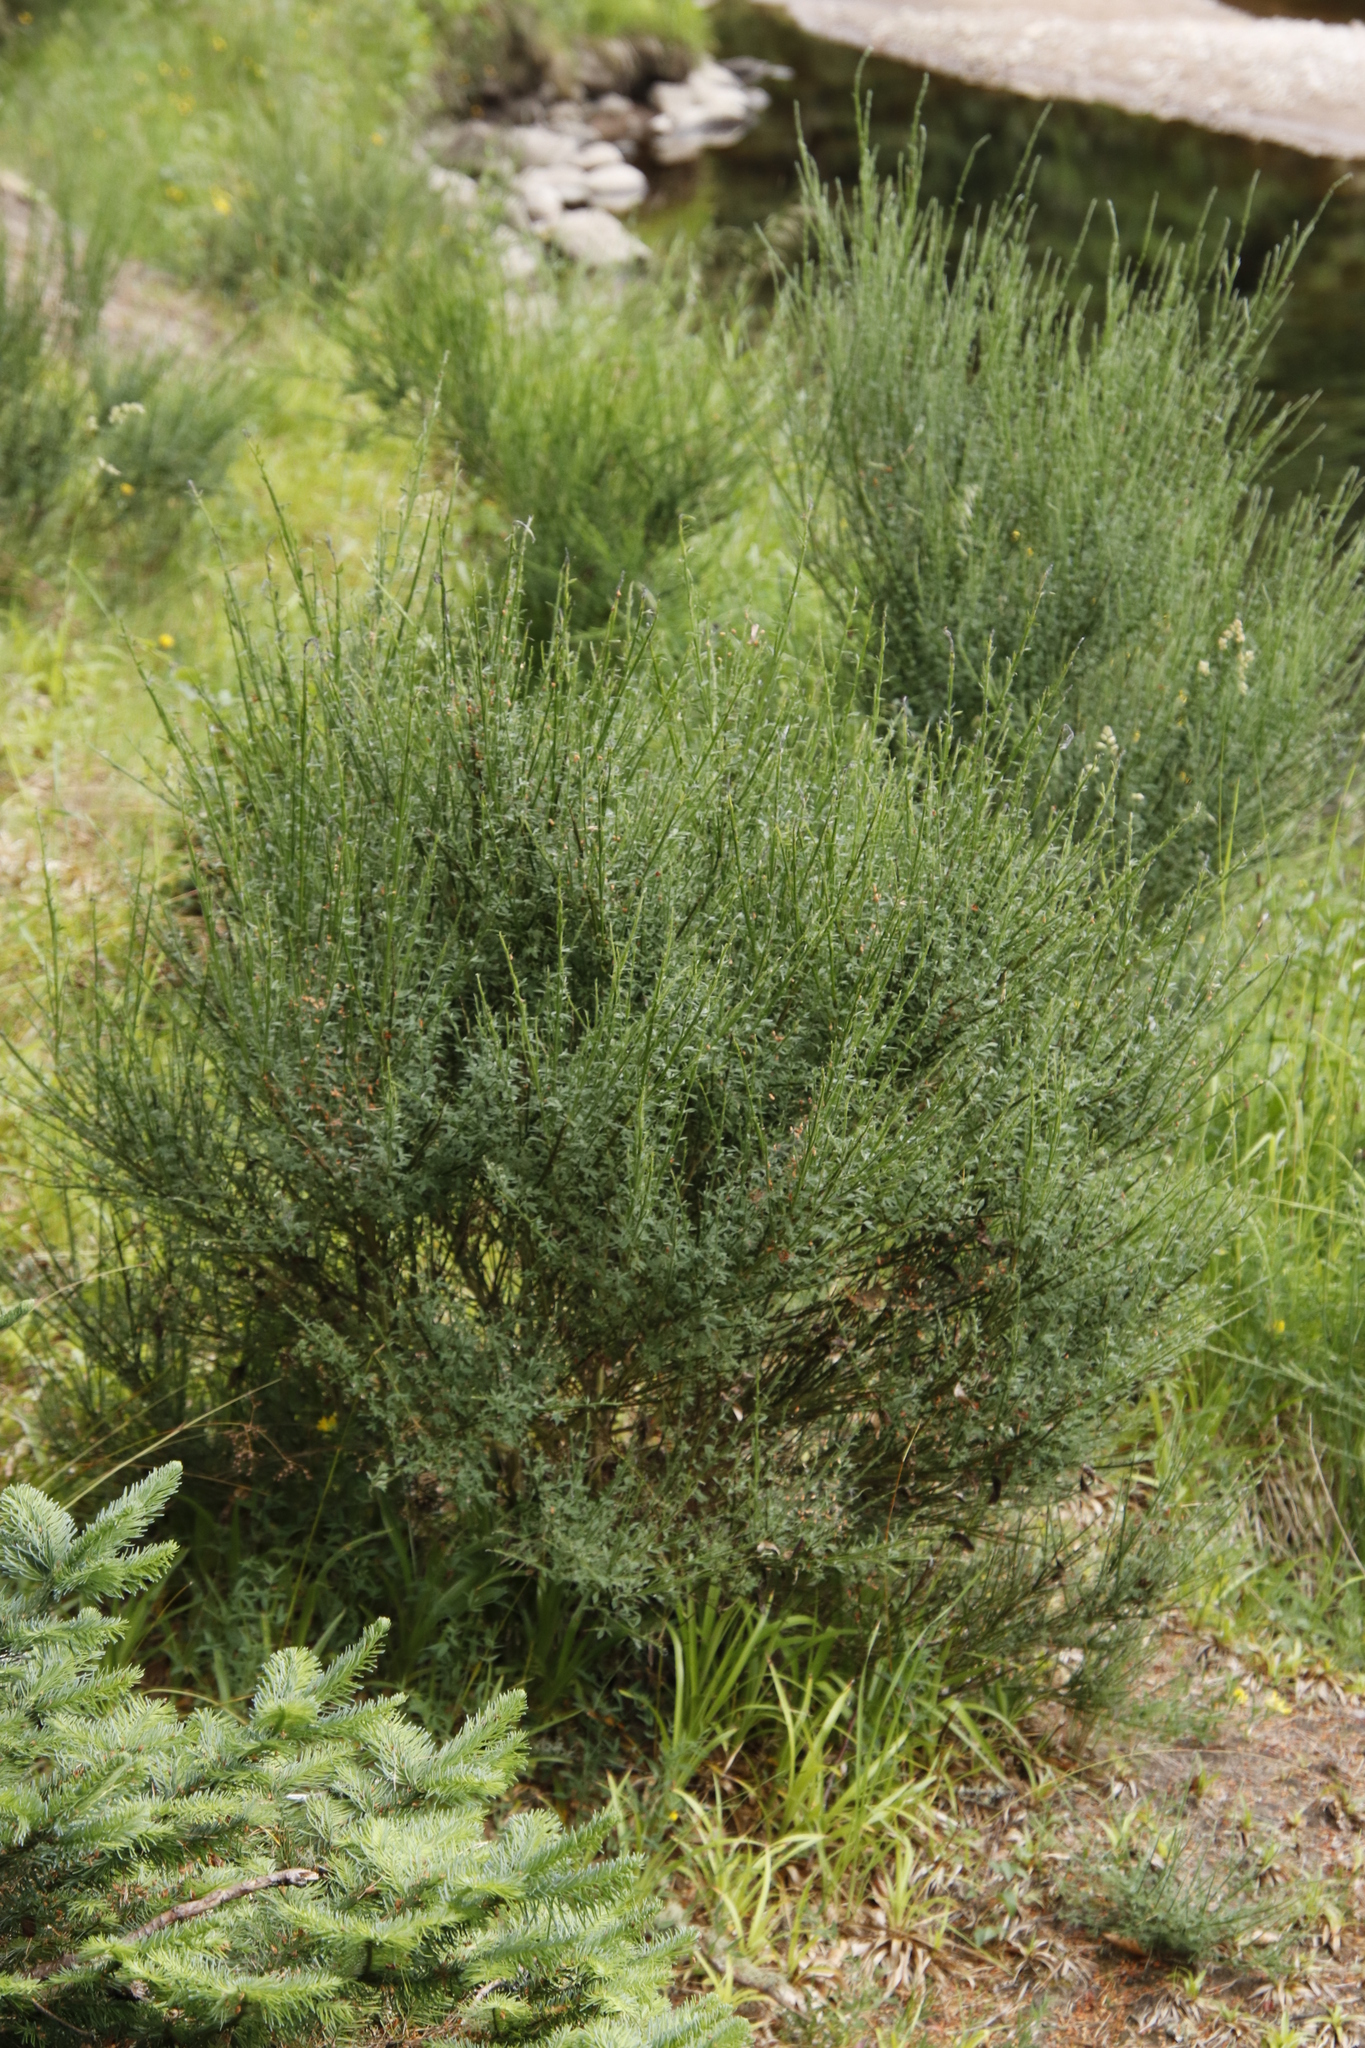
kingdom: Plantae
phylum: Tracheophyta
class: Magnoliopsida
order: Fabales
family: Fabaceae
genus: Cytisus
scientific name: Cytisus scoparius
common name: Scotch broom
